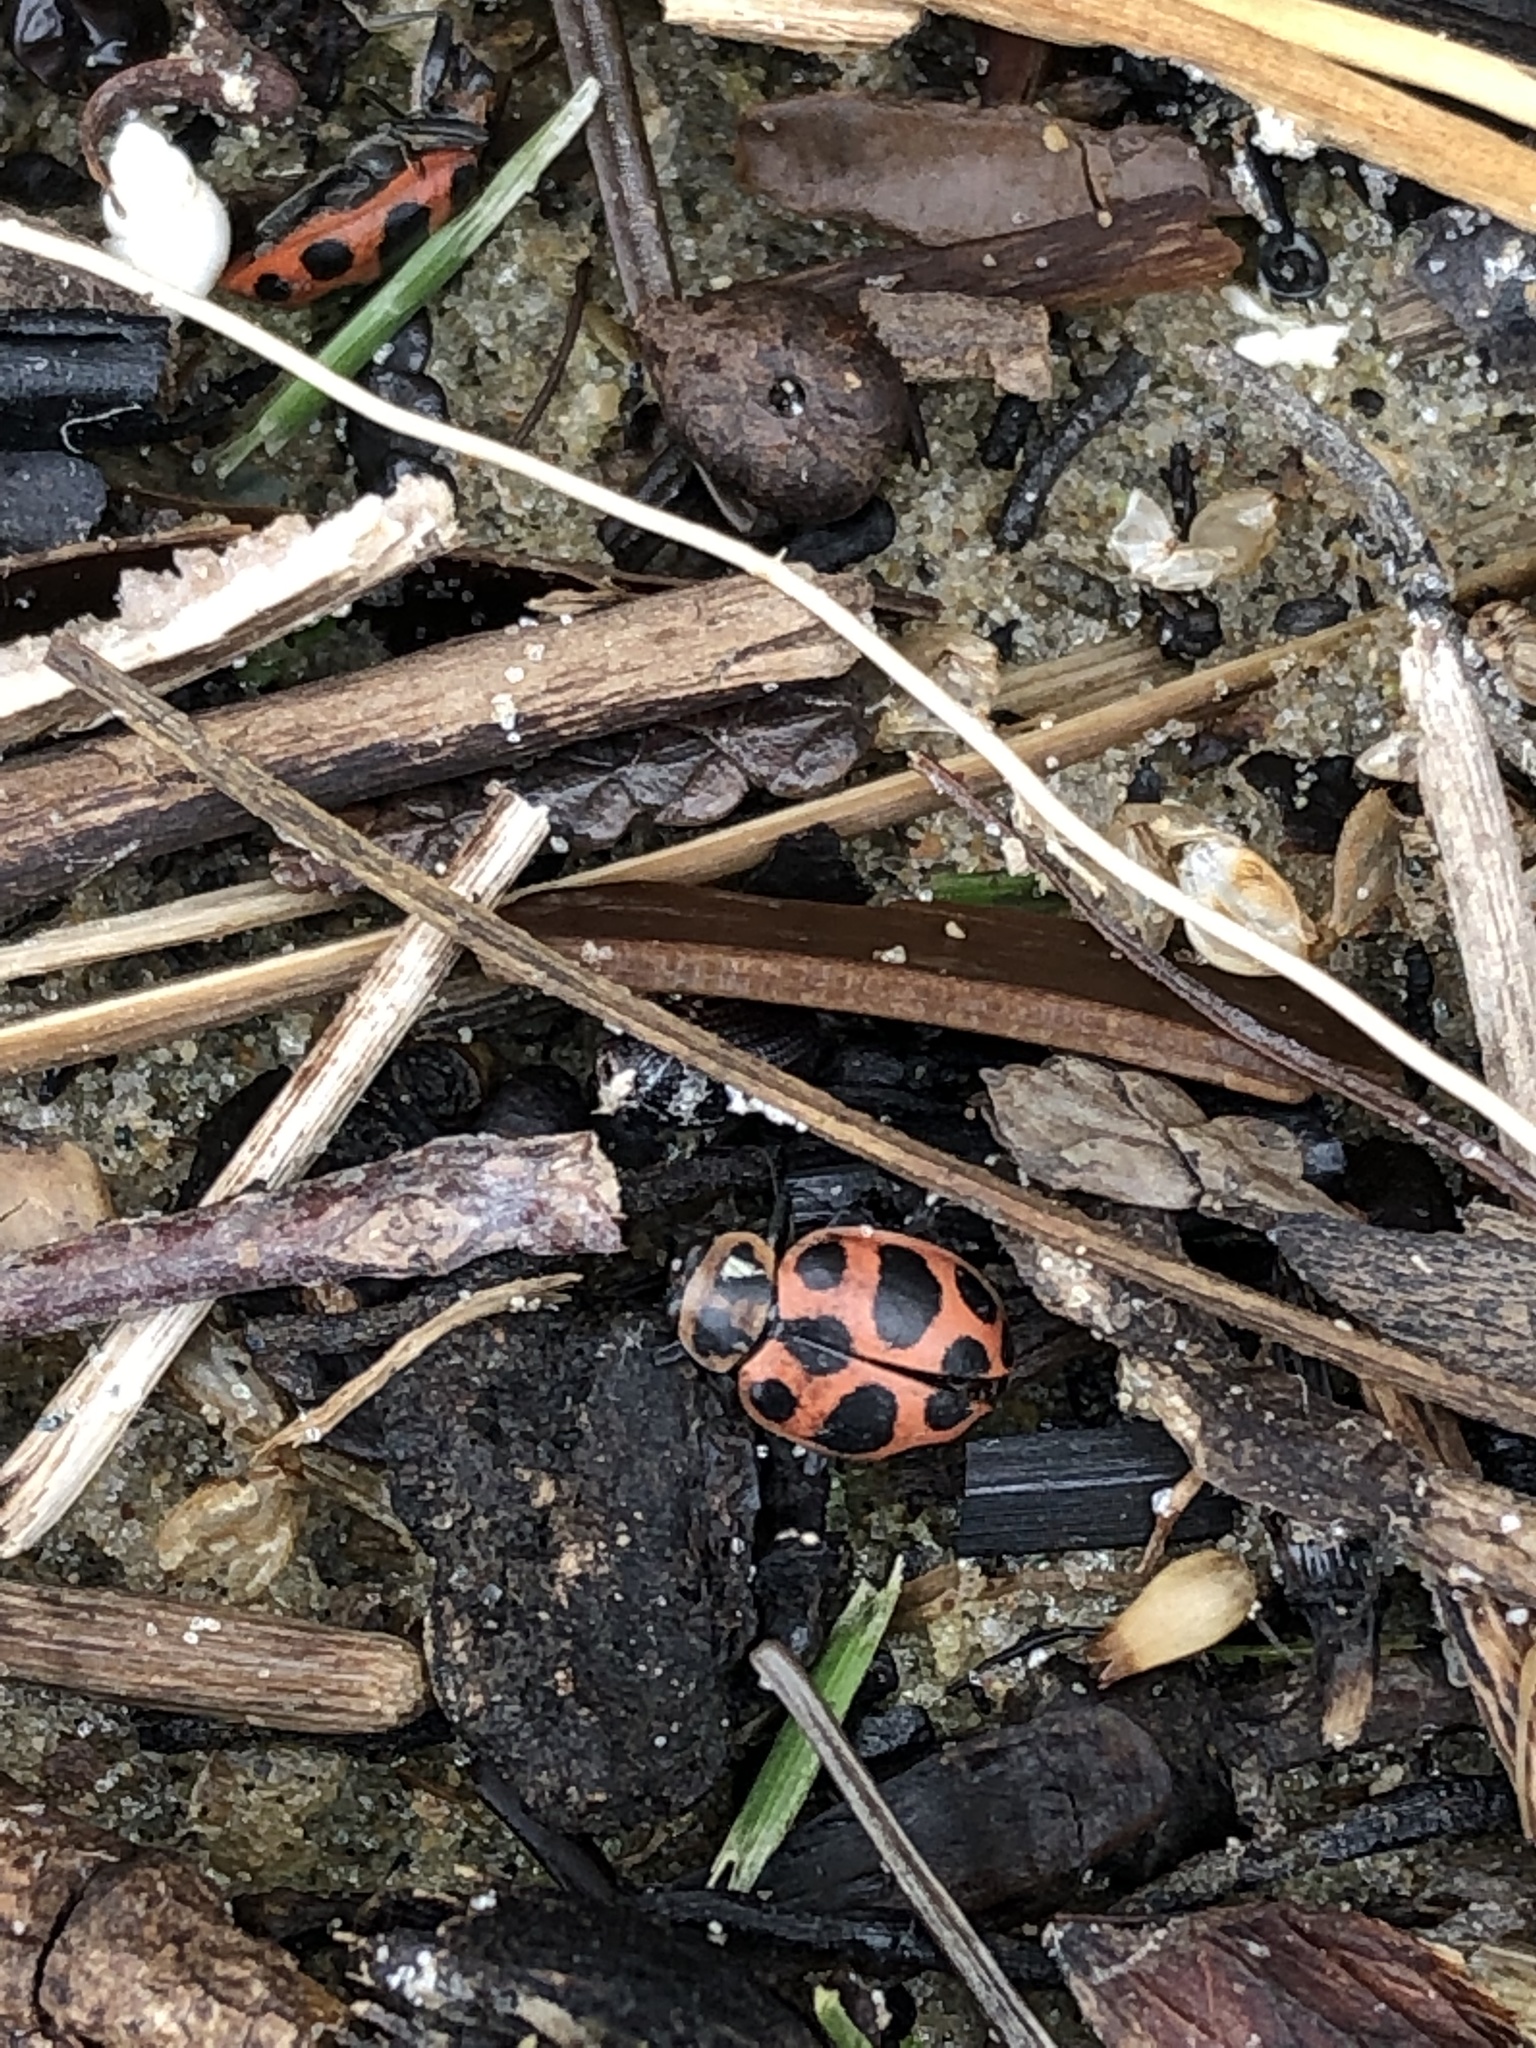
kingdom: Animalia
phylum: Arthropoda
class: Insecta
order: Coleoptera
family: Coccinellidae
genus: Coleomegilla
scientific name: Coleomegilla maculata
